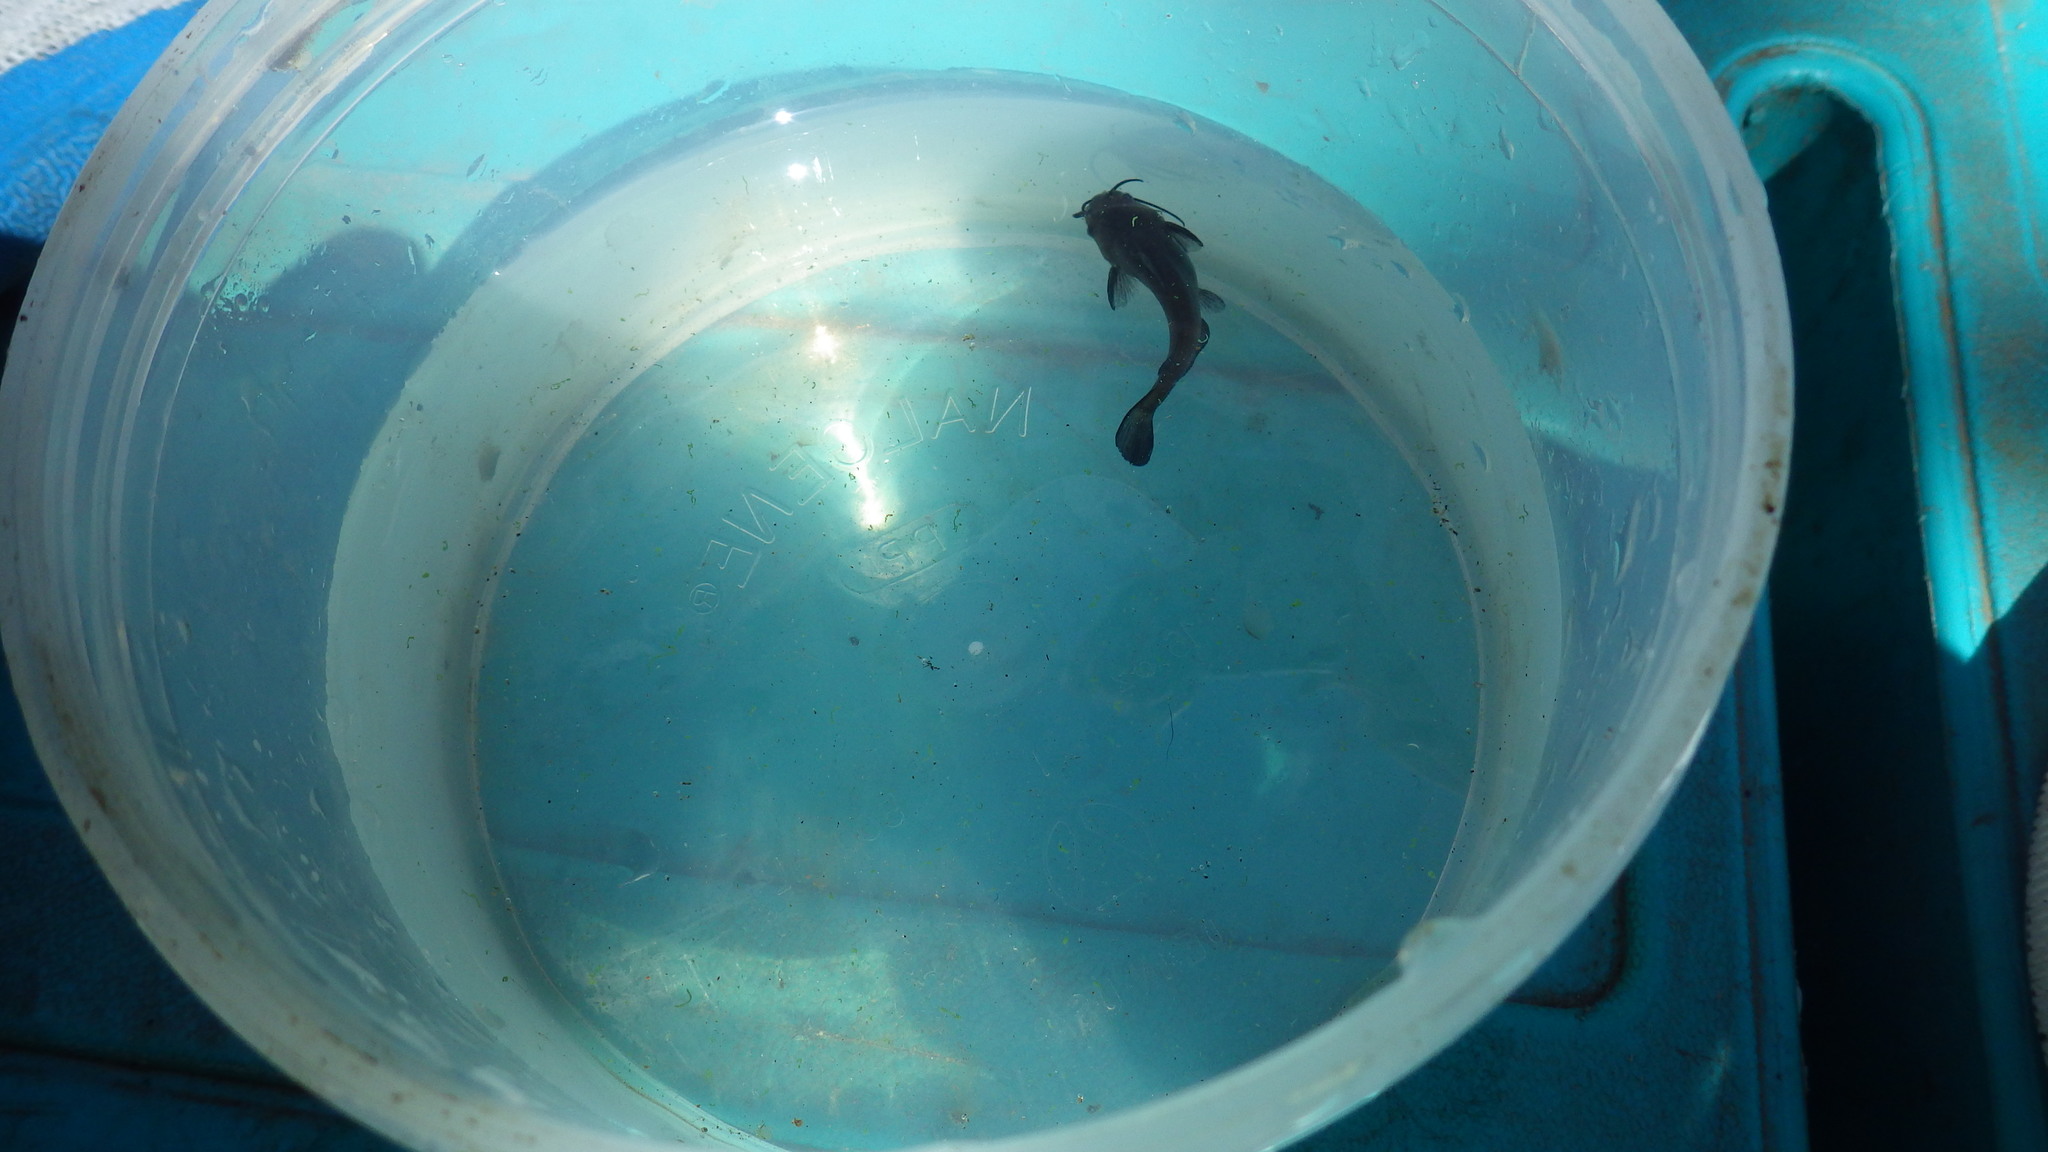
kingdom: Animalia
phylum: Chordata
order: Siluriformes
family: Ictaluridae
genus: Ameiurus
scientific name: Ameiurus melas
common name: Black bullhead
